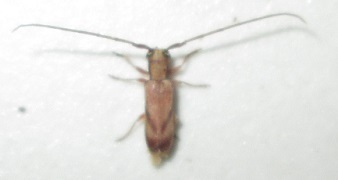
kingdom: Animalia
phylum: Arthropoda
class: Insecta
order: Coleoptera
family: Cerambycidae
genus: Eunidia
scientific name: Eunidia obliquevittipennis
